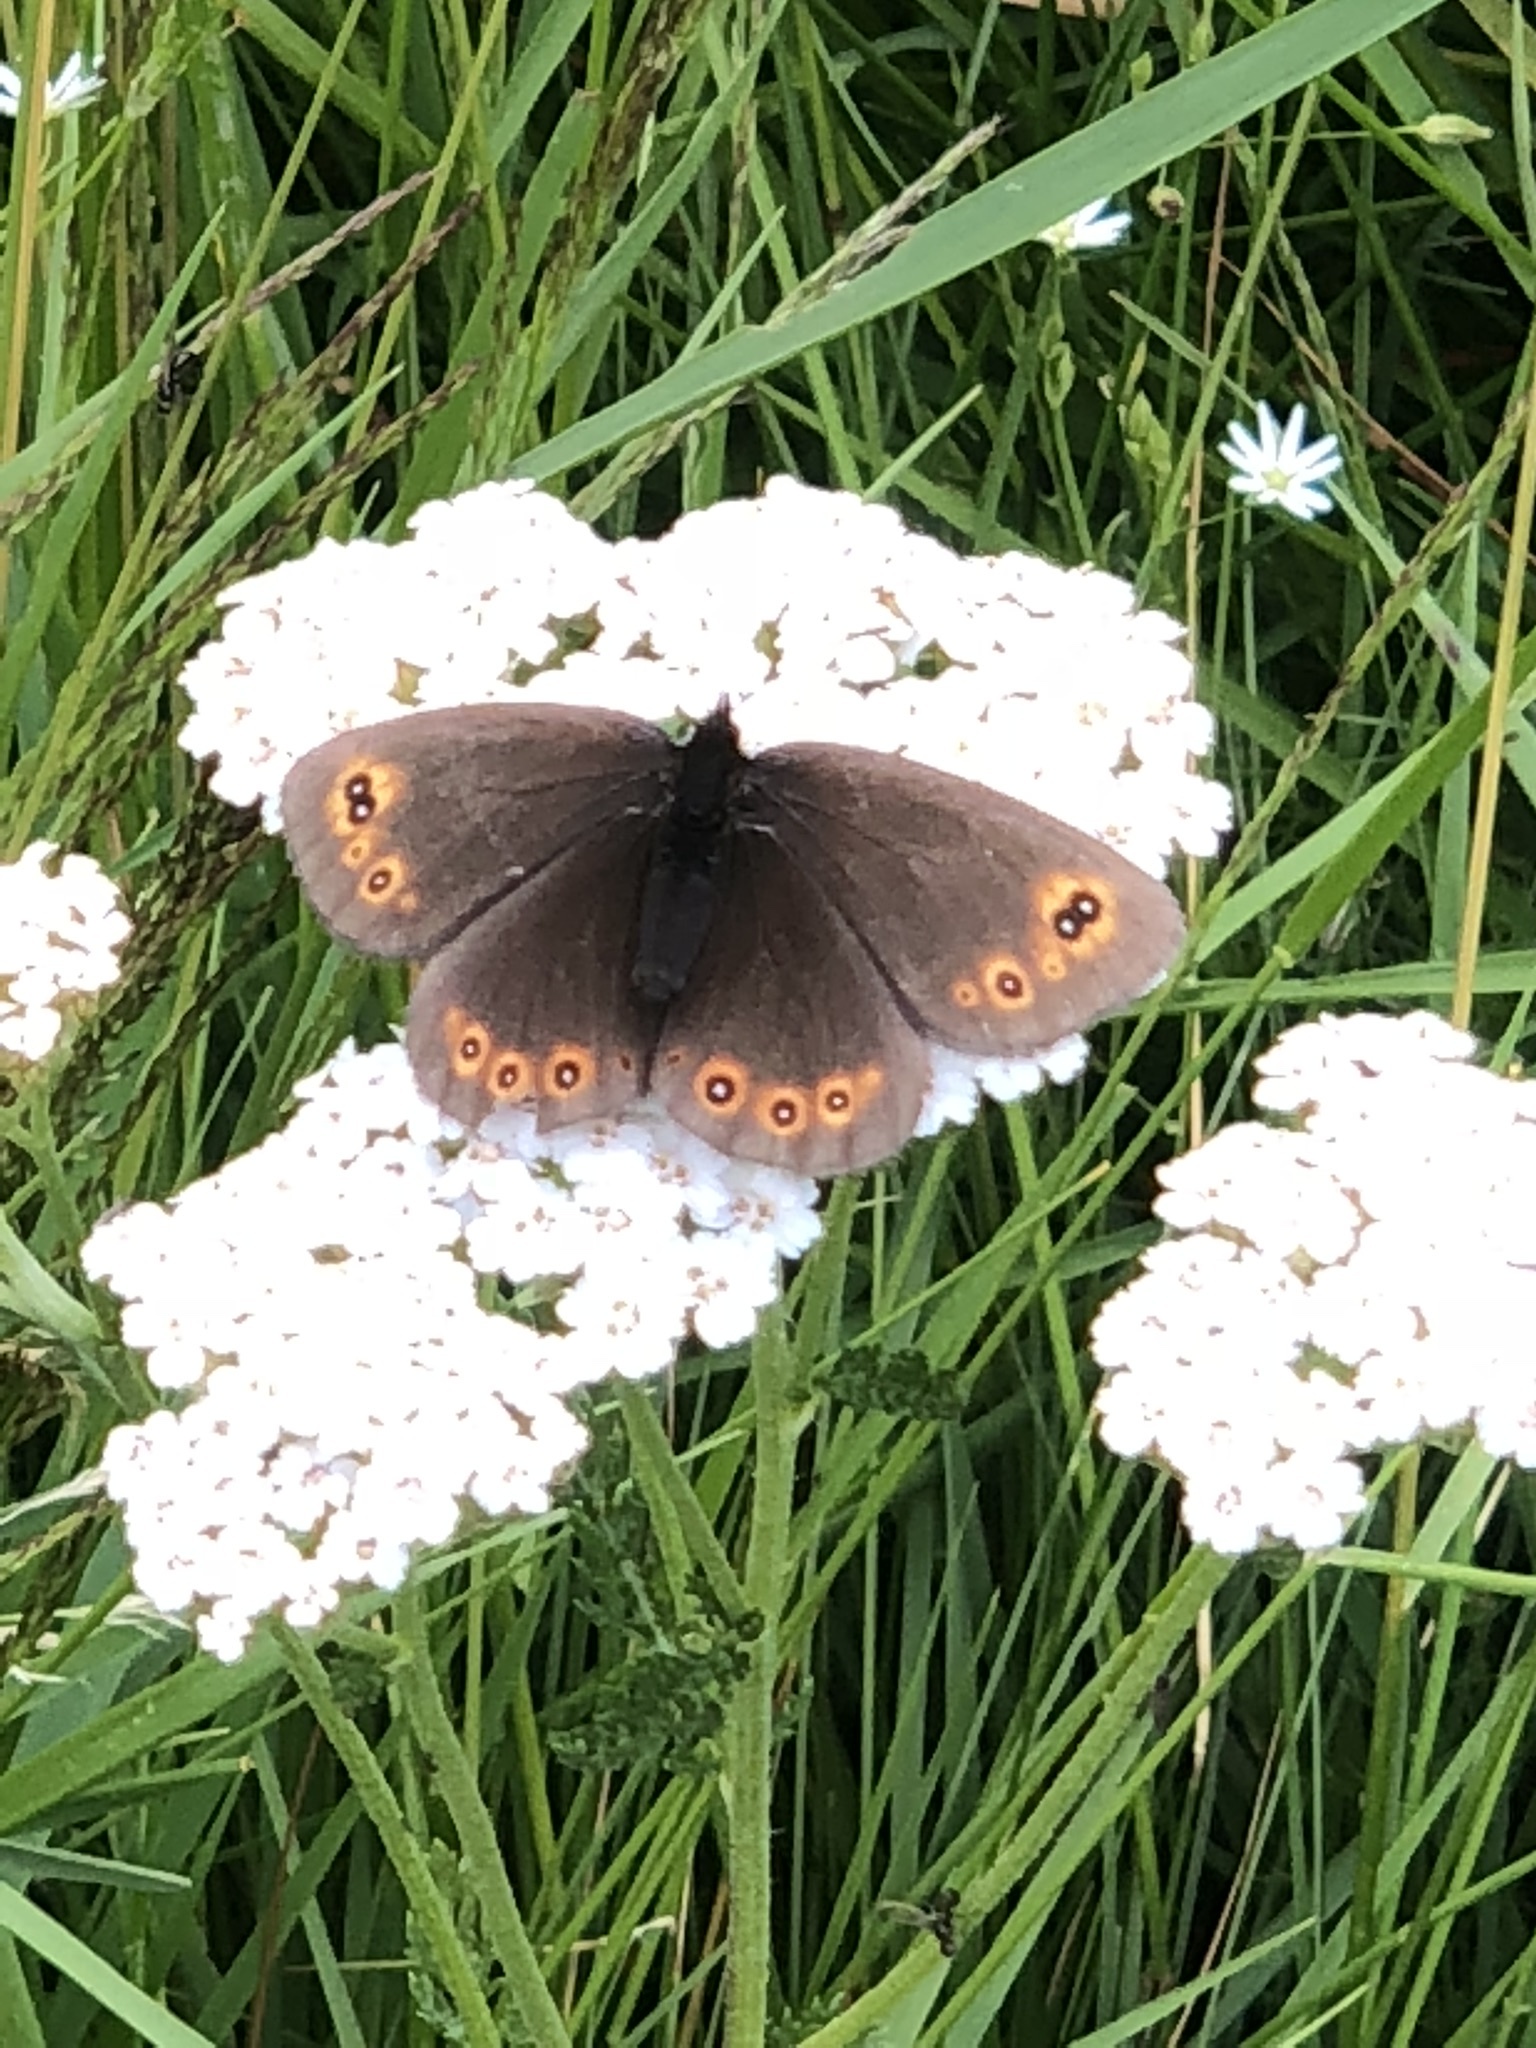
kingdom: Animalia
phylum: Arthropoda
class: Insecta
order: Lepidoptera
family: Nymphalidae
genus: Erebia
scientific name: Erebia medusa
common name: Woodland ringlet
